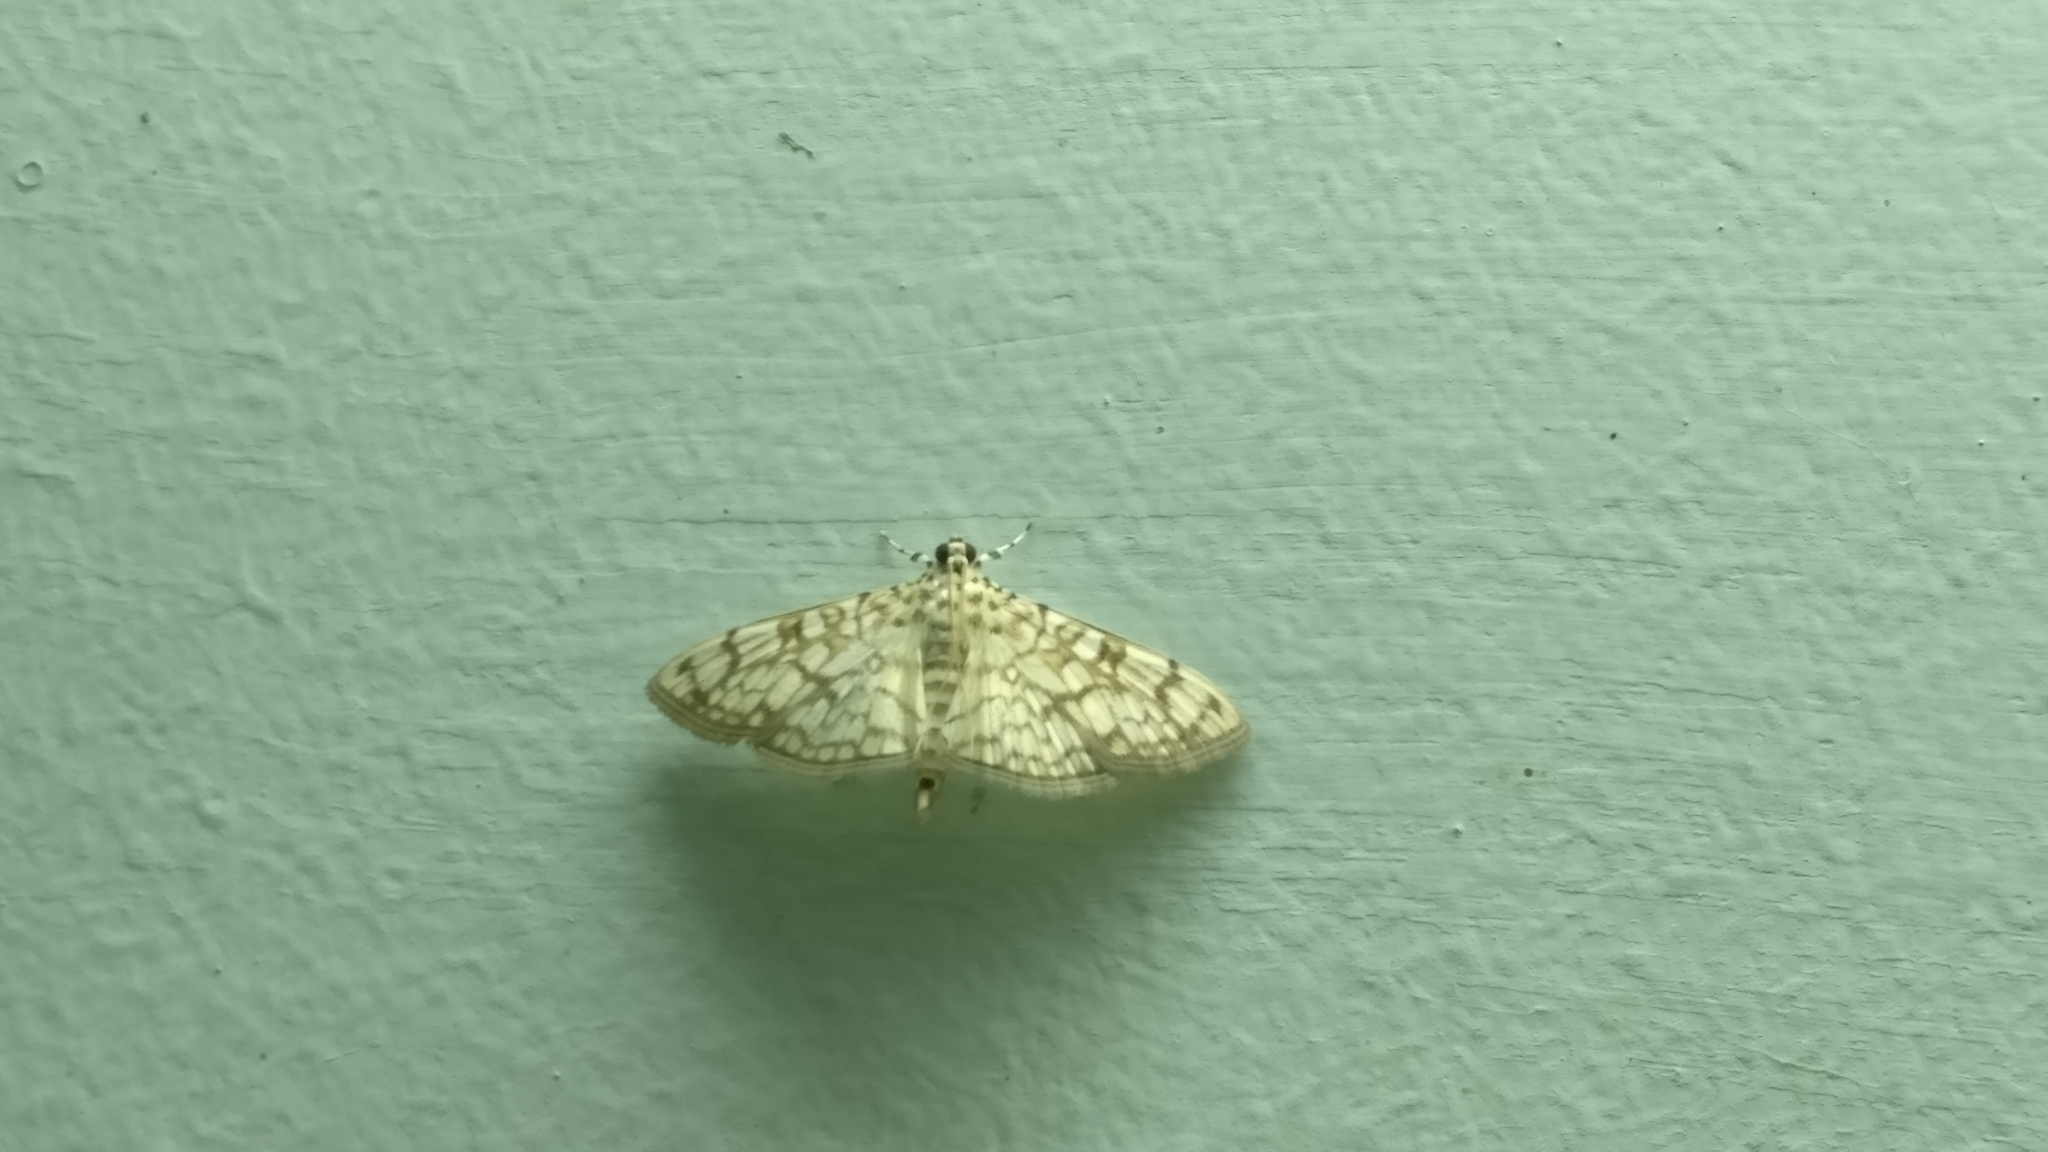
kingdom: Animalia
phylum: Arthropoda
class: Insecta
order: Lepidoptera
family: Crambidae
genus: Haritalodes
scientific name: Haritalodes derogata
